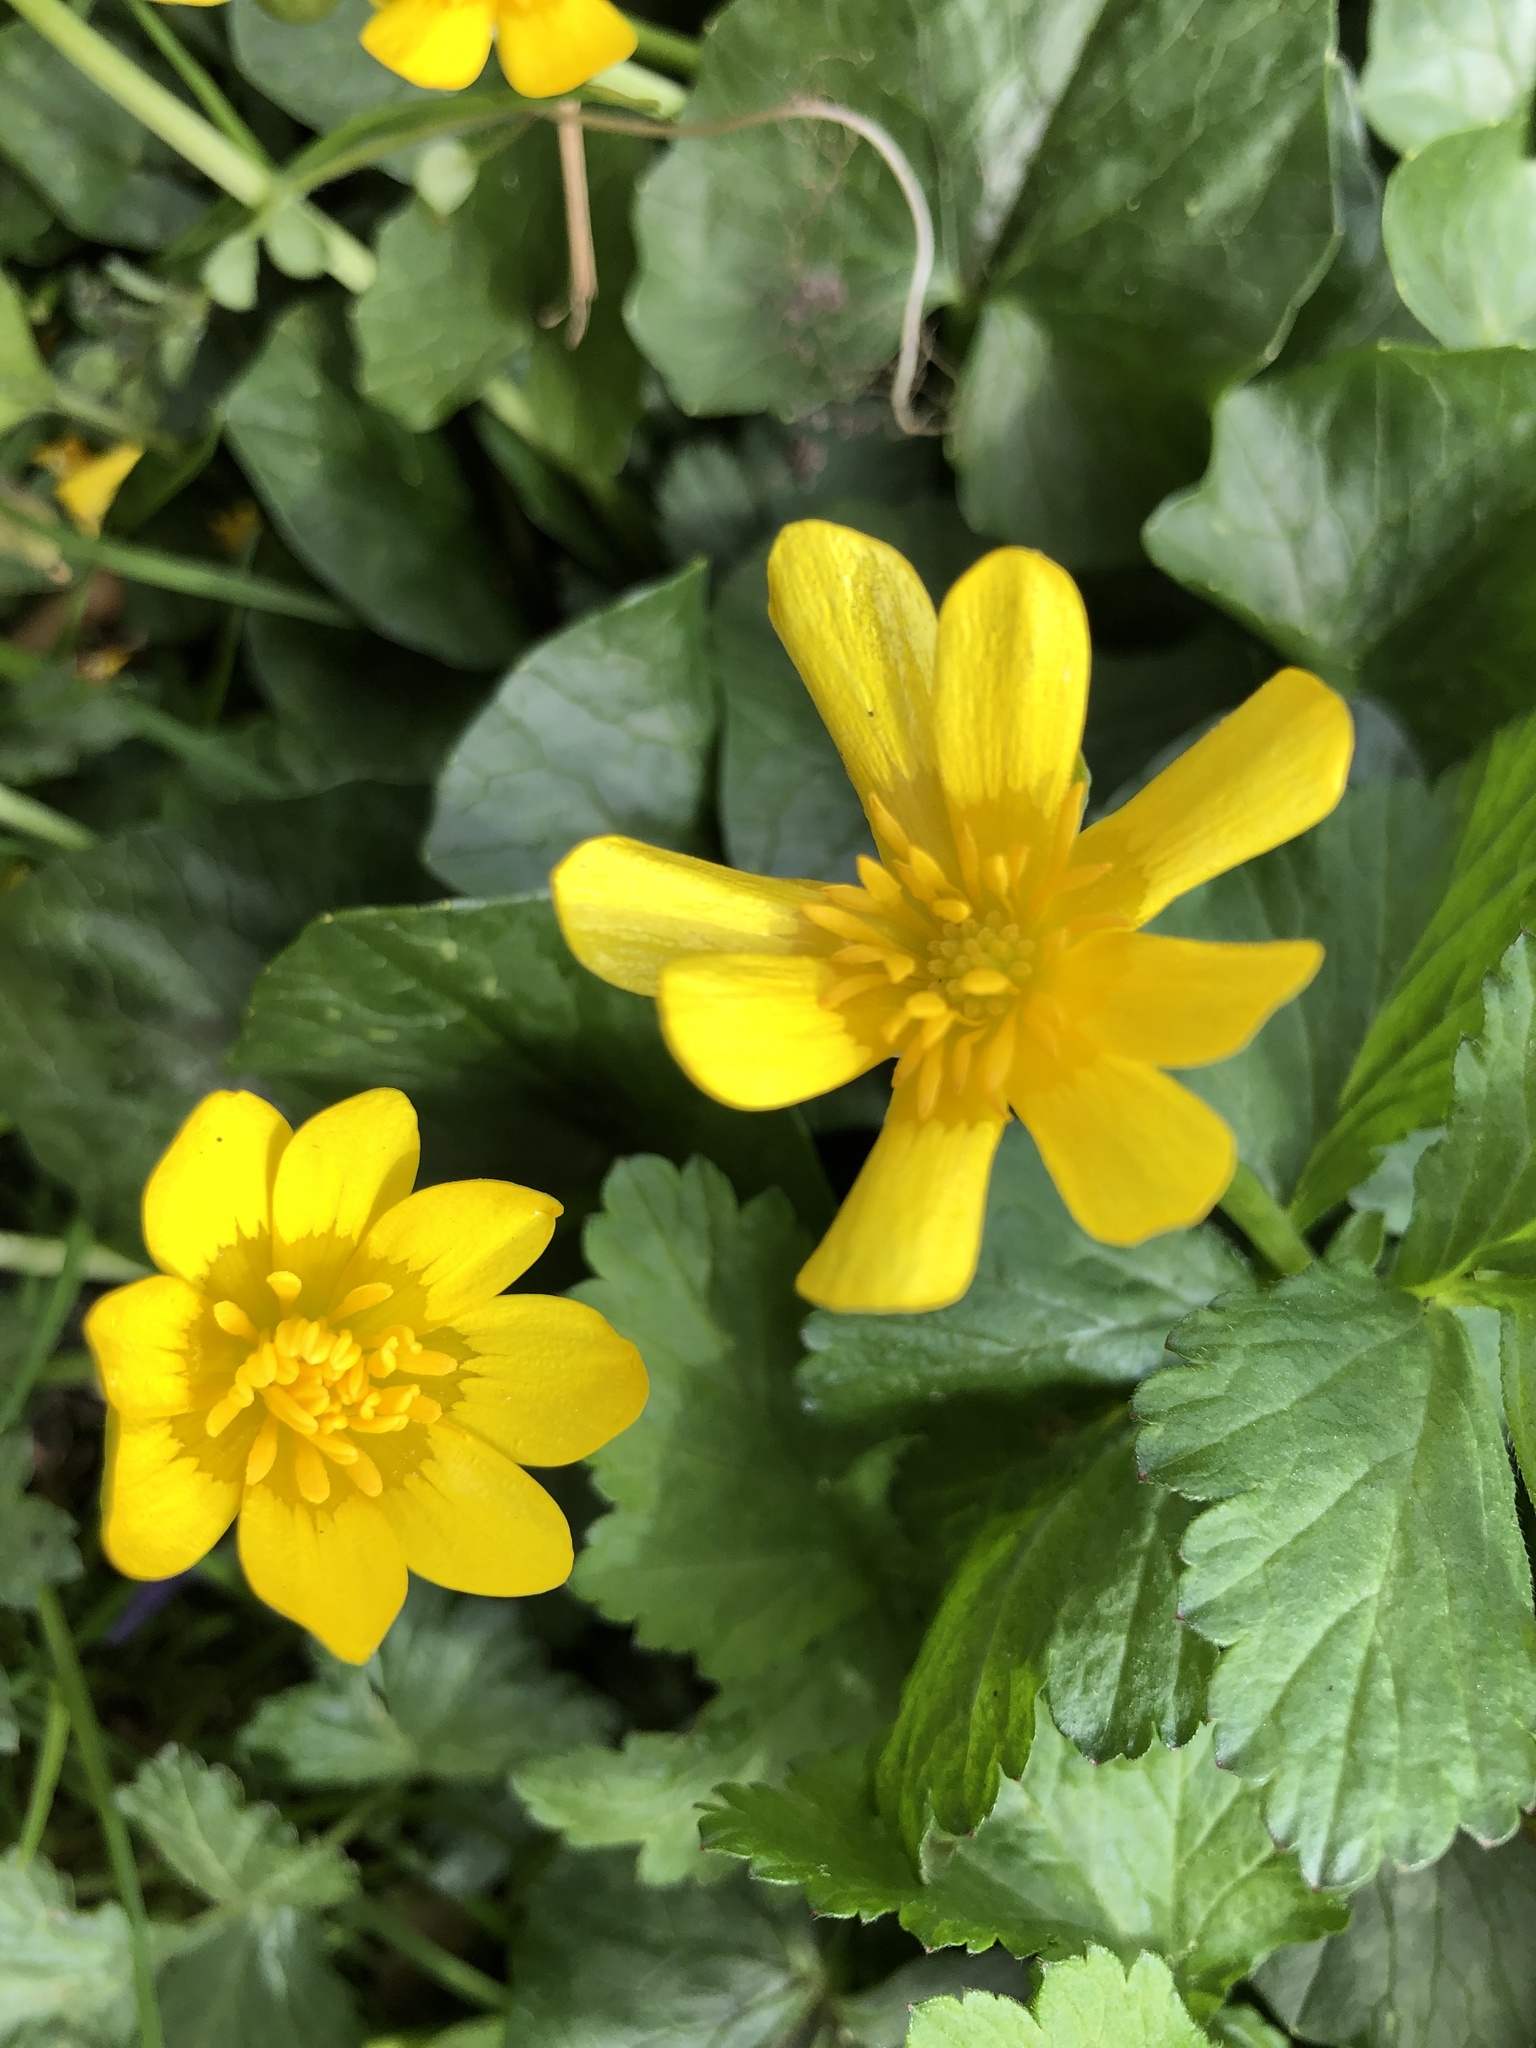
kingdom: Plantae
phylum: Tracheophyta
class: Magnoliopsida
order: Ranunculales
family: Ranunculaceae
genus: Ficaria
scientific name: Ficaria verna
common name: Lesser celandine
